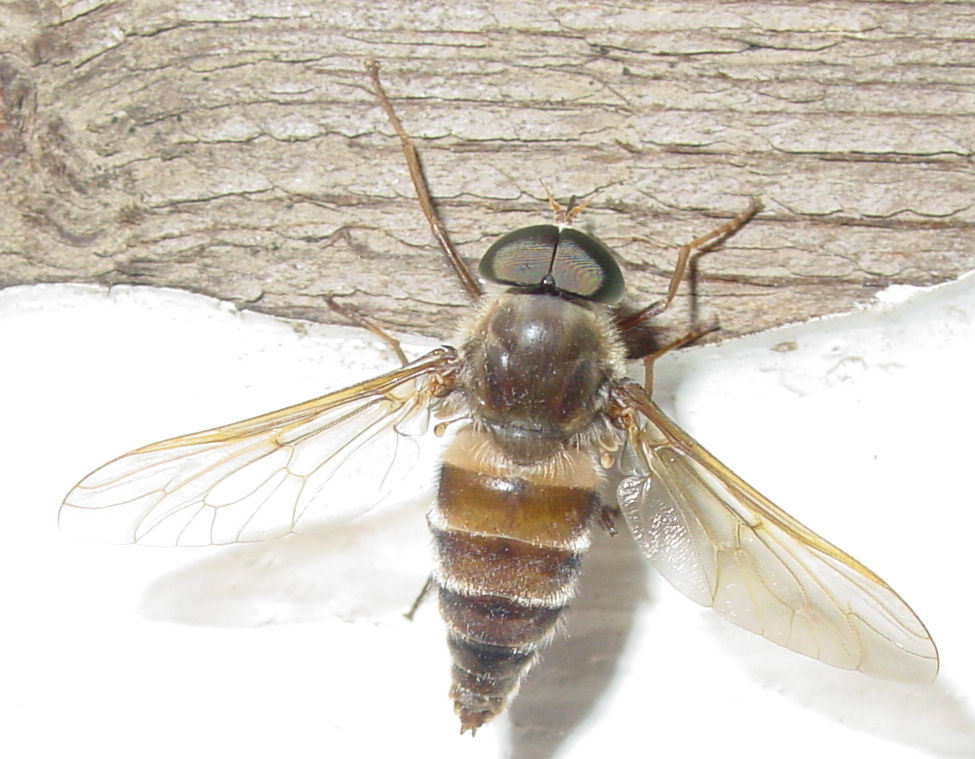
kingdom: Animalia
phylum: Arthropoda
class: Insecta
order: Diptera
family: Tabanidae
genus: Esenbeckia
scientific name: Esenbeckia delta
